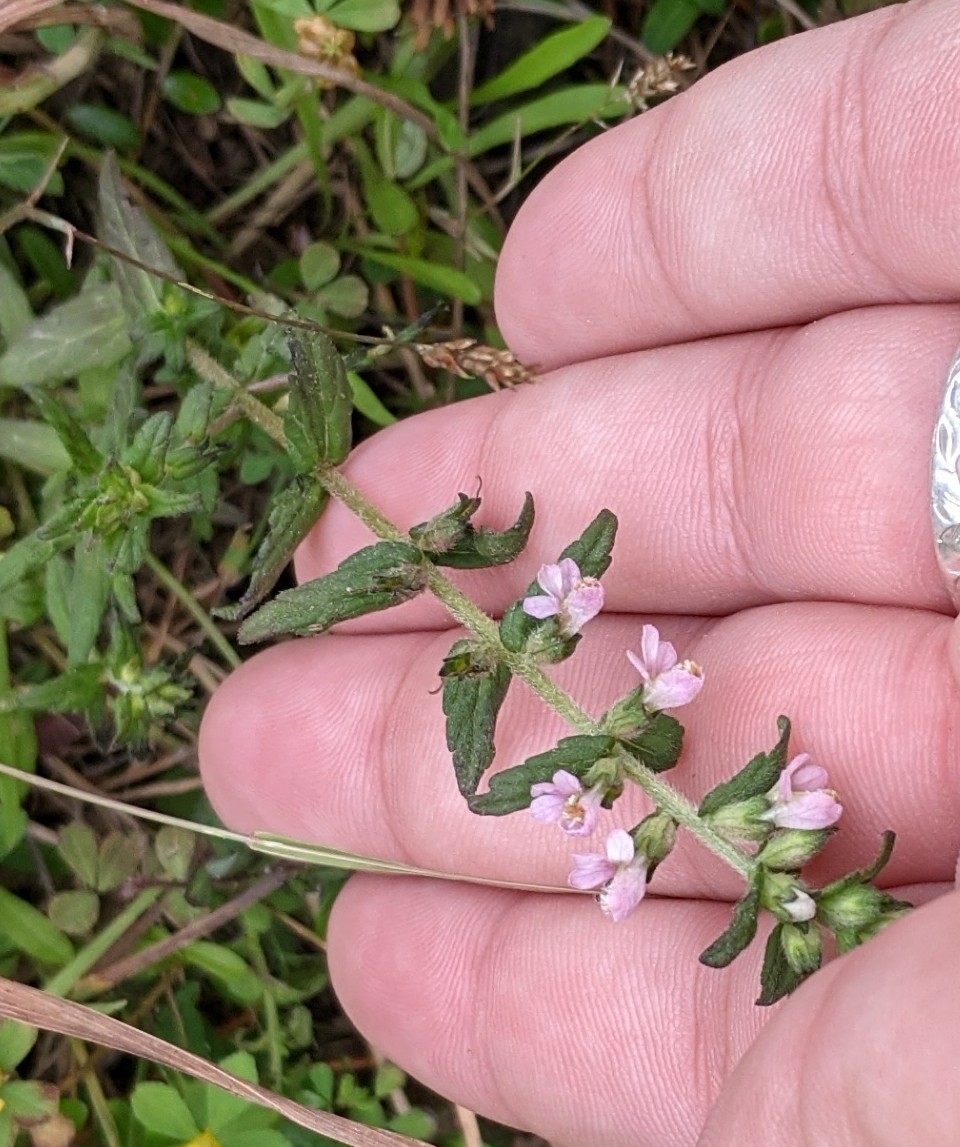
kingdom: Plantae
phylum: Tracheophyta
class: Magnoliopsida
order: Lamiales
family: Orobanchaceae
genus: Odontites
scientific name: Odontites vulgaris
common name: Broomrape
